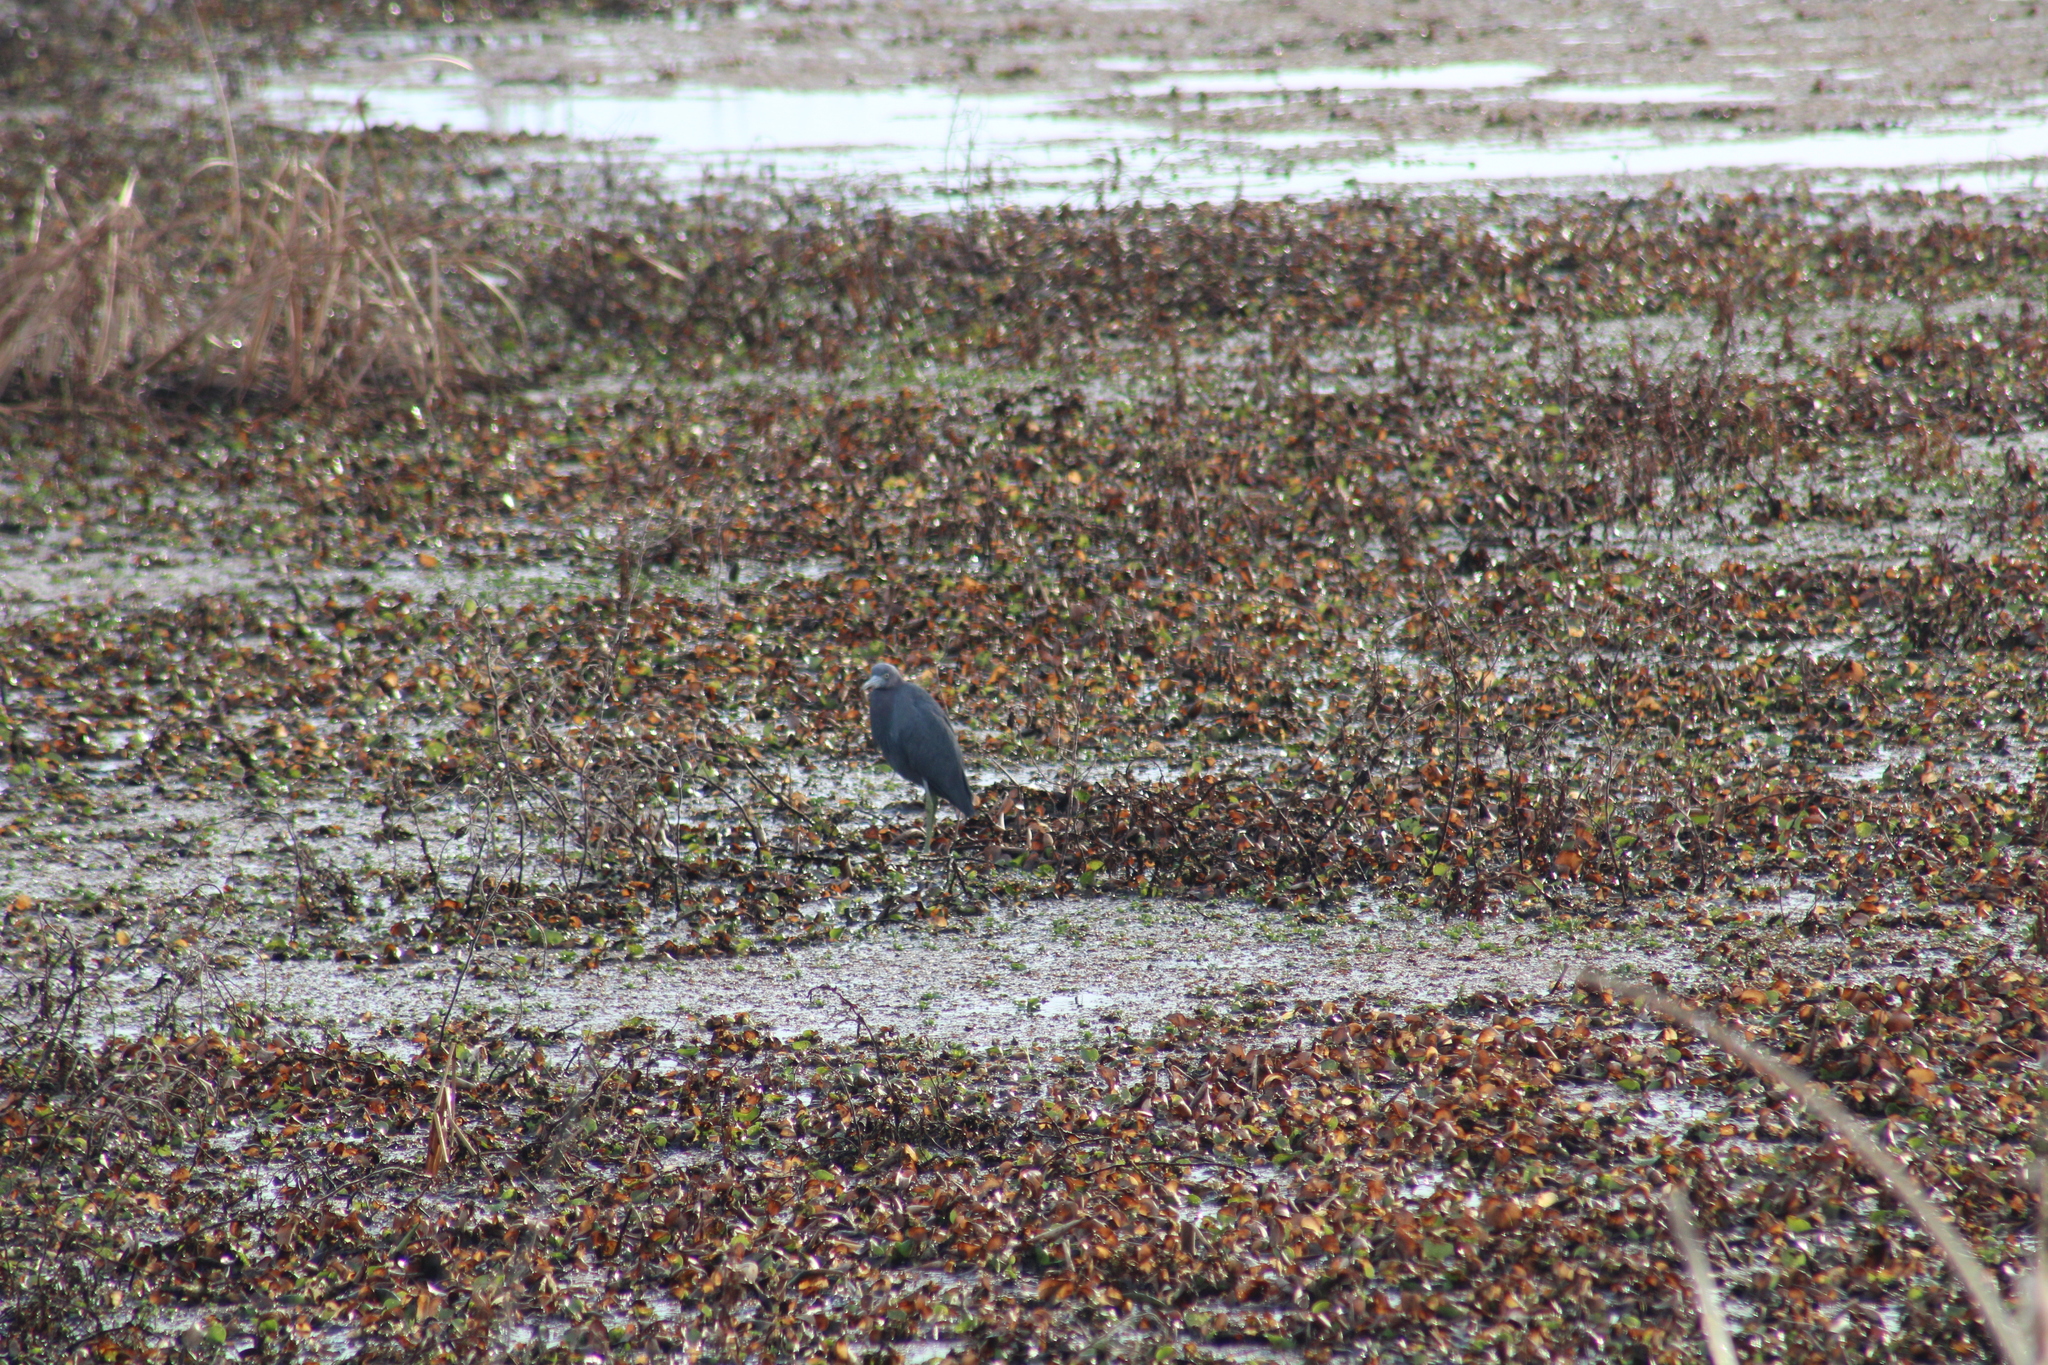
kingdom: Animalia
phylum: Chordata
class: Aves
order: Pelecaniformes
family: Ardeidae
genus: Egretta
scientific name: Egretta caerulea
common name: Little blue heron
